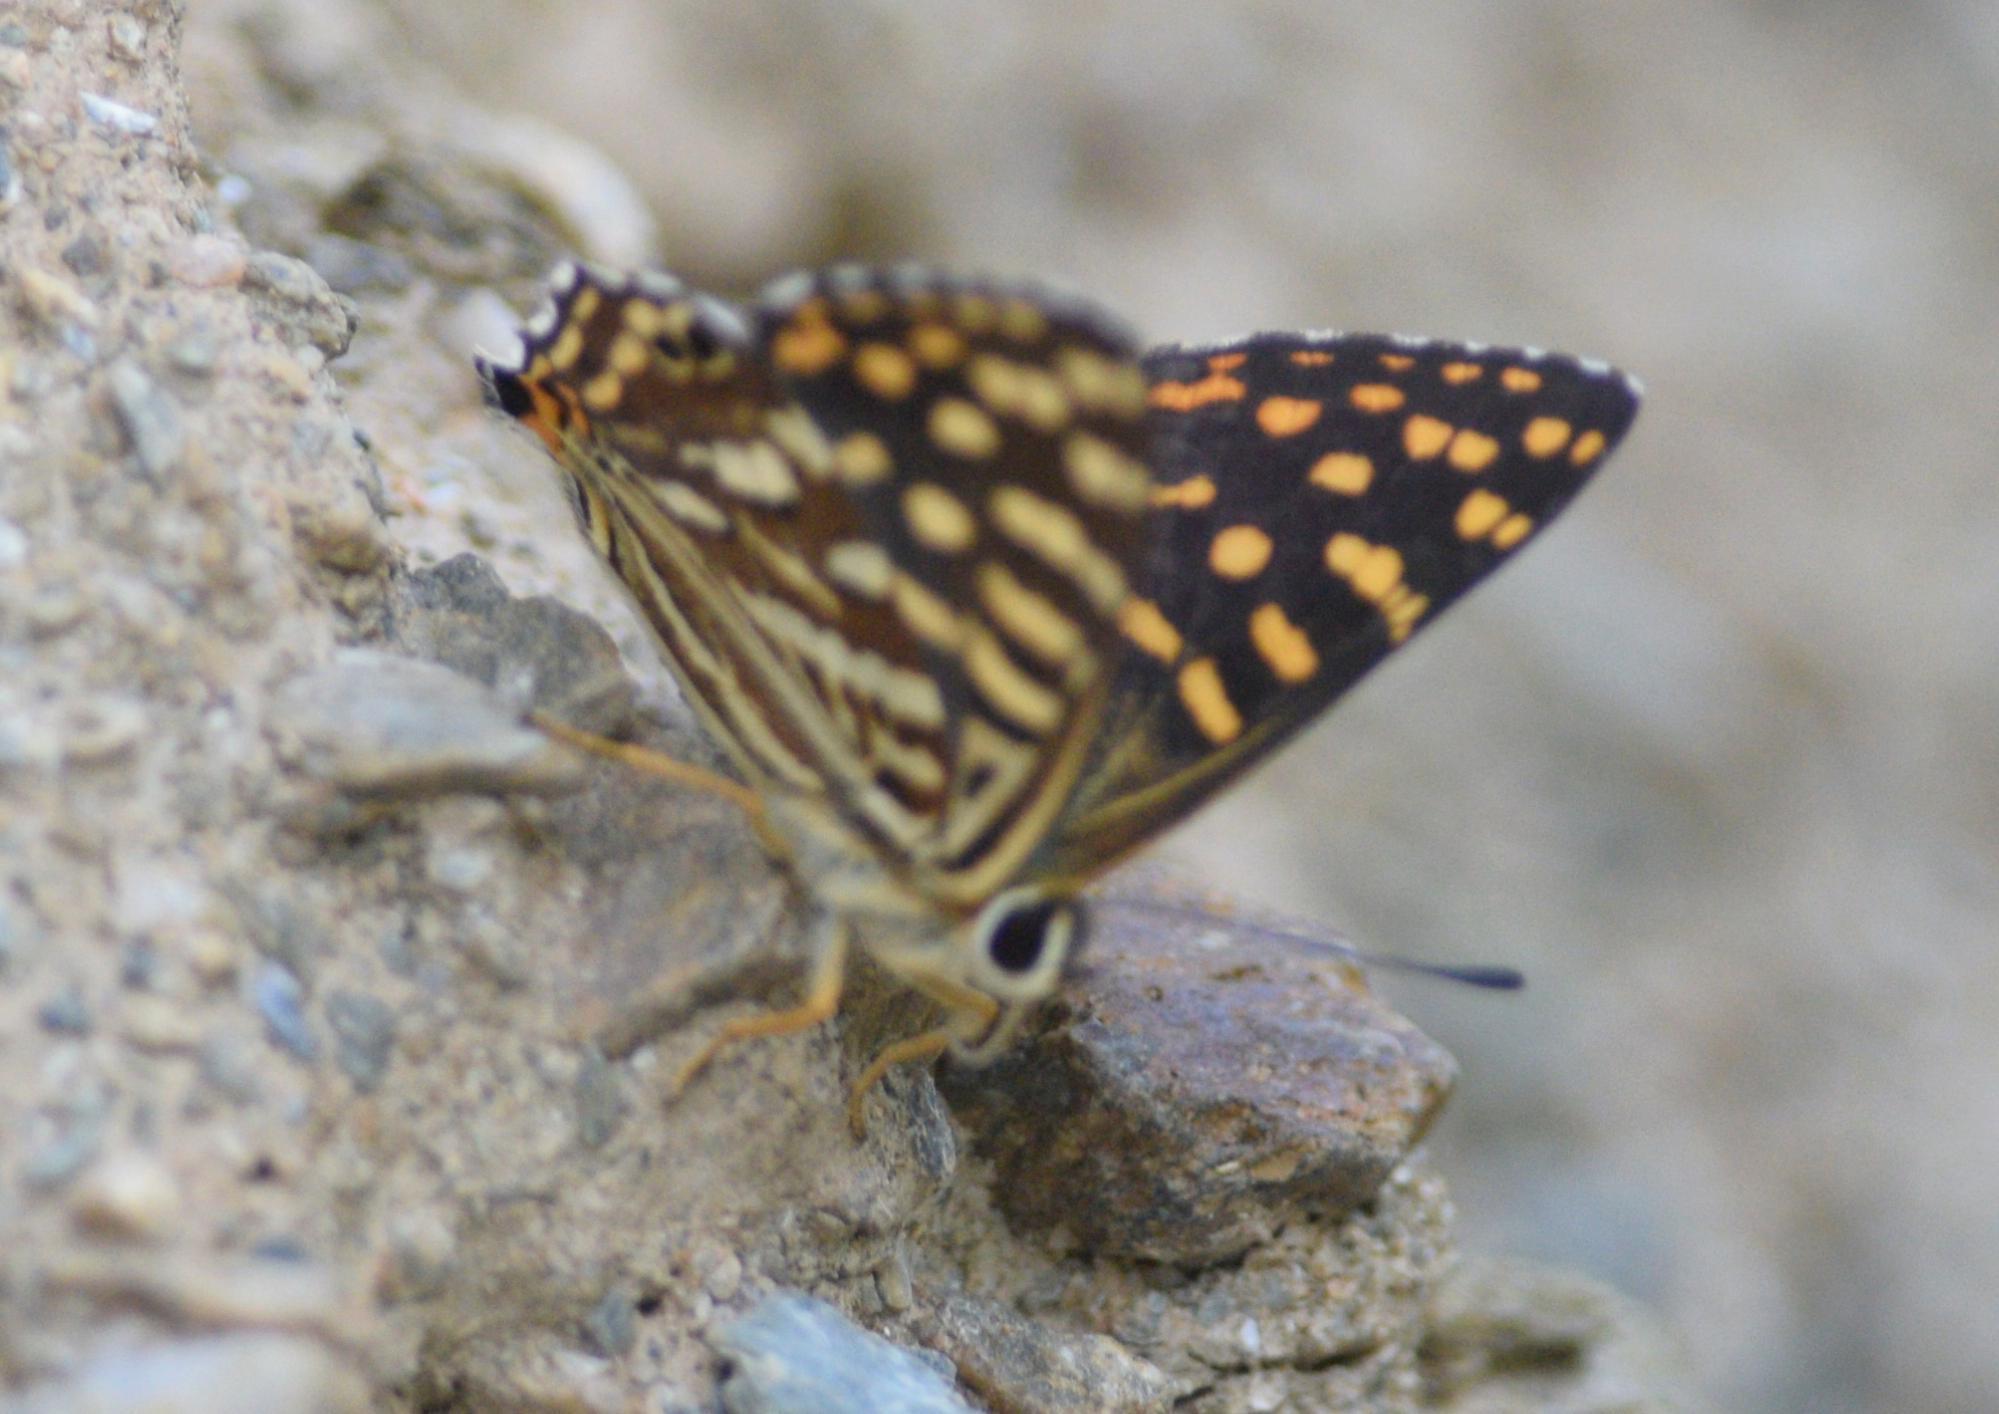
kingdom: Animalia
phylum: Arthropoda
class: Insecta
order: Lepidoptera
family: Lycaenidae
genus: Dodona
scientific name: Dodona durga
